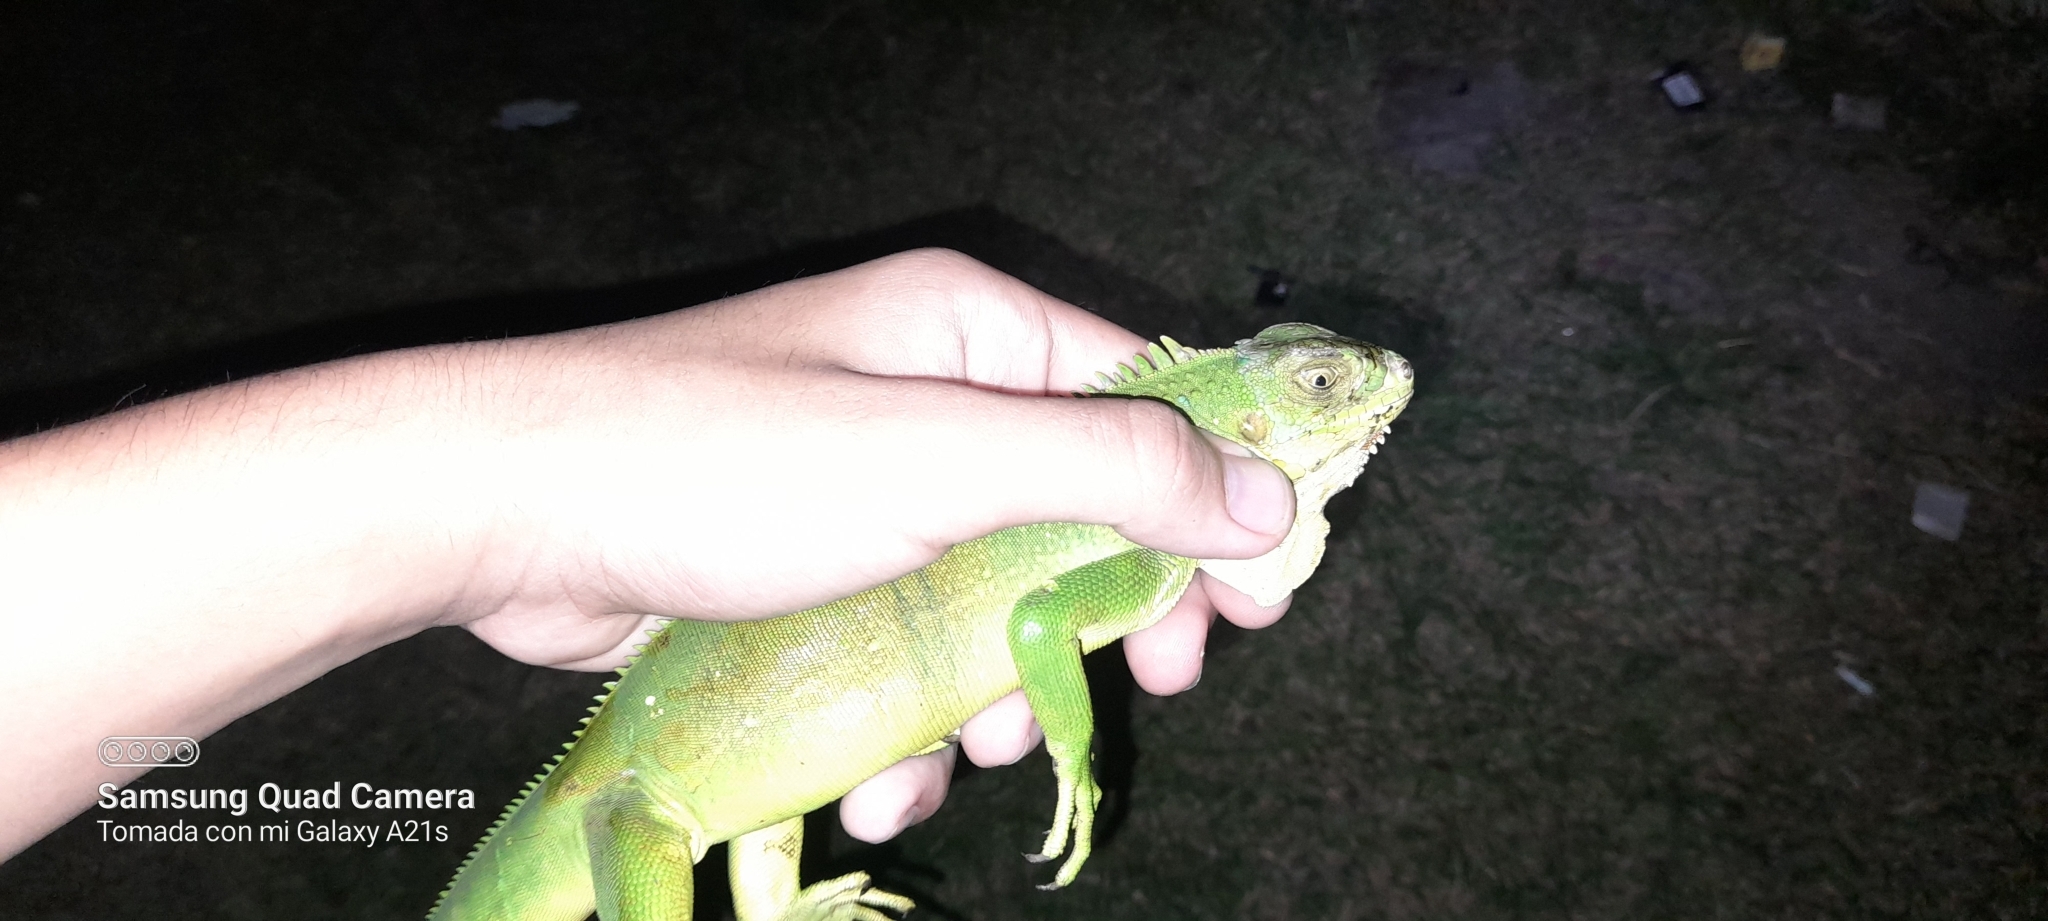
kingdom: Animalia
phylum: Chordata
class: Squamata
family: Iguanidae
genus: Iguana
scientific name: Iguana iguana
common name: Green iguana
